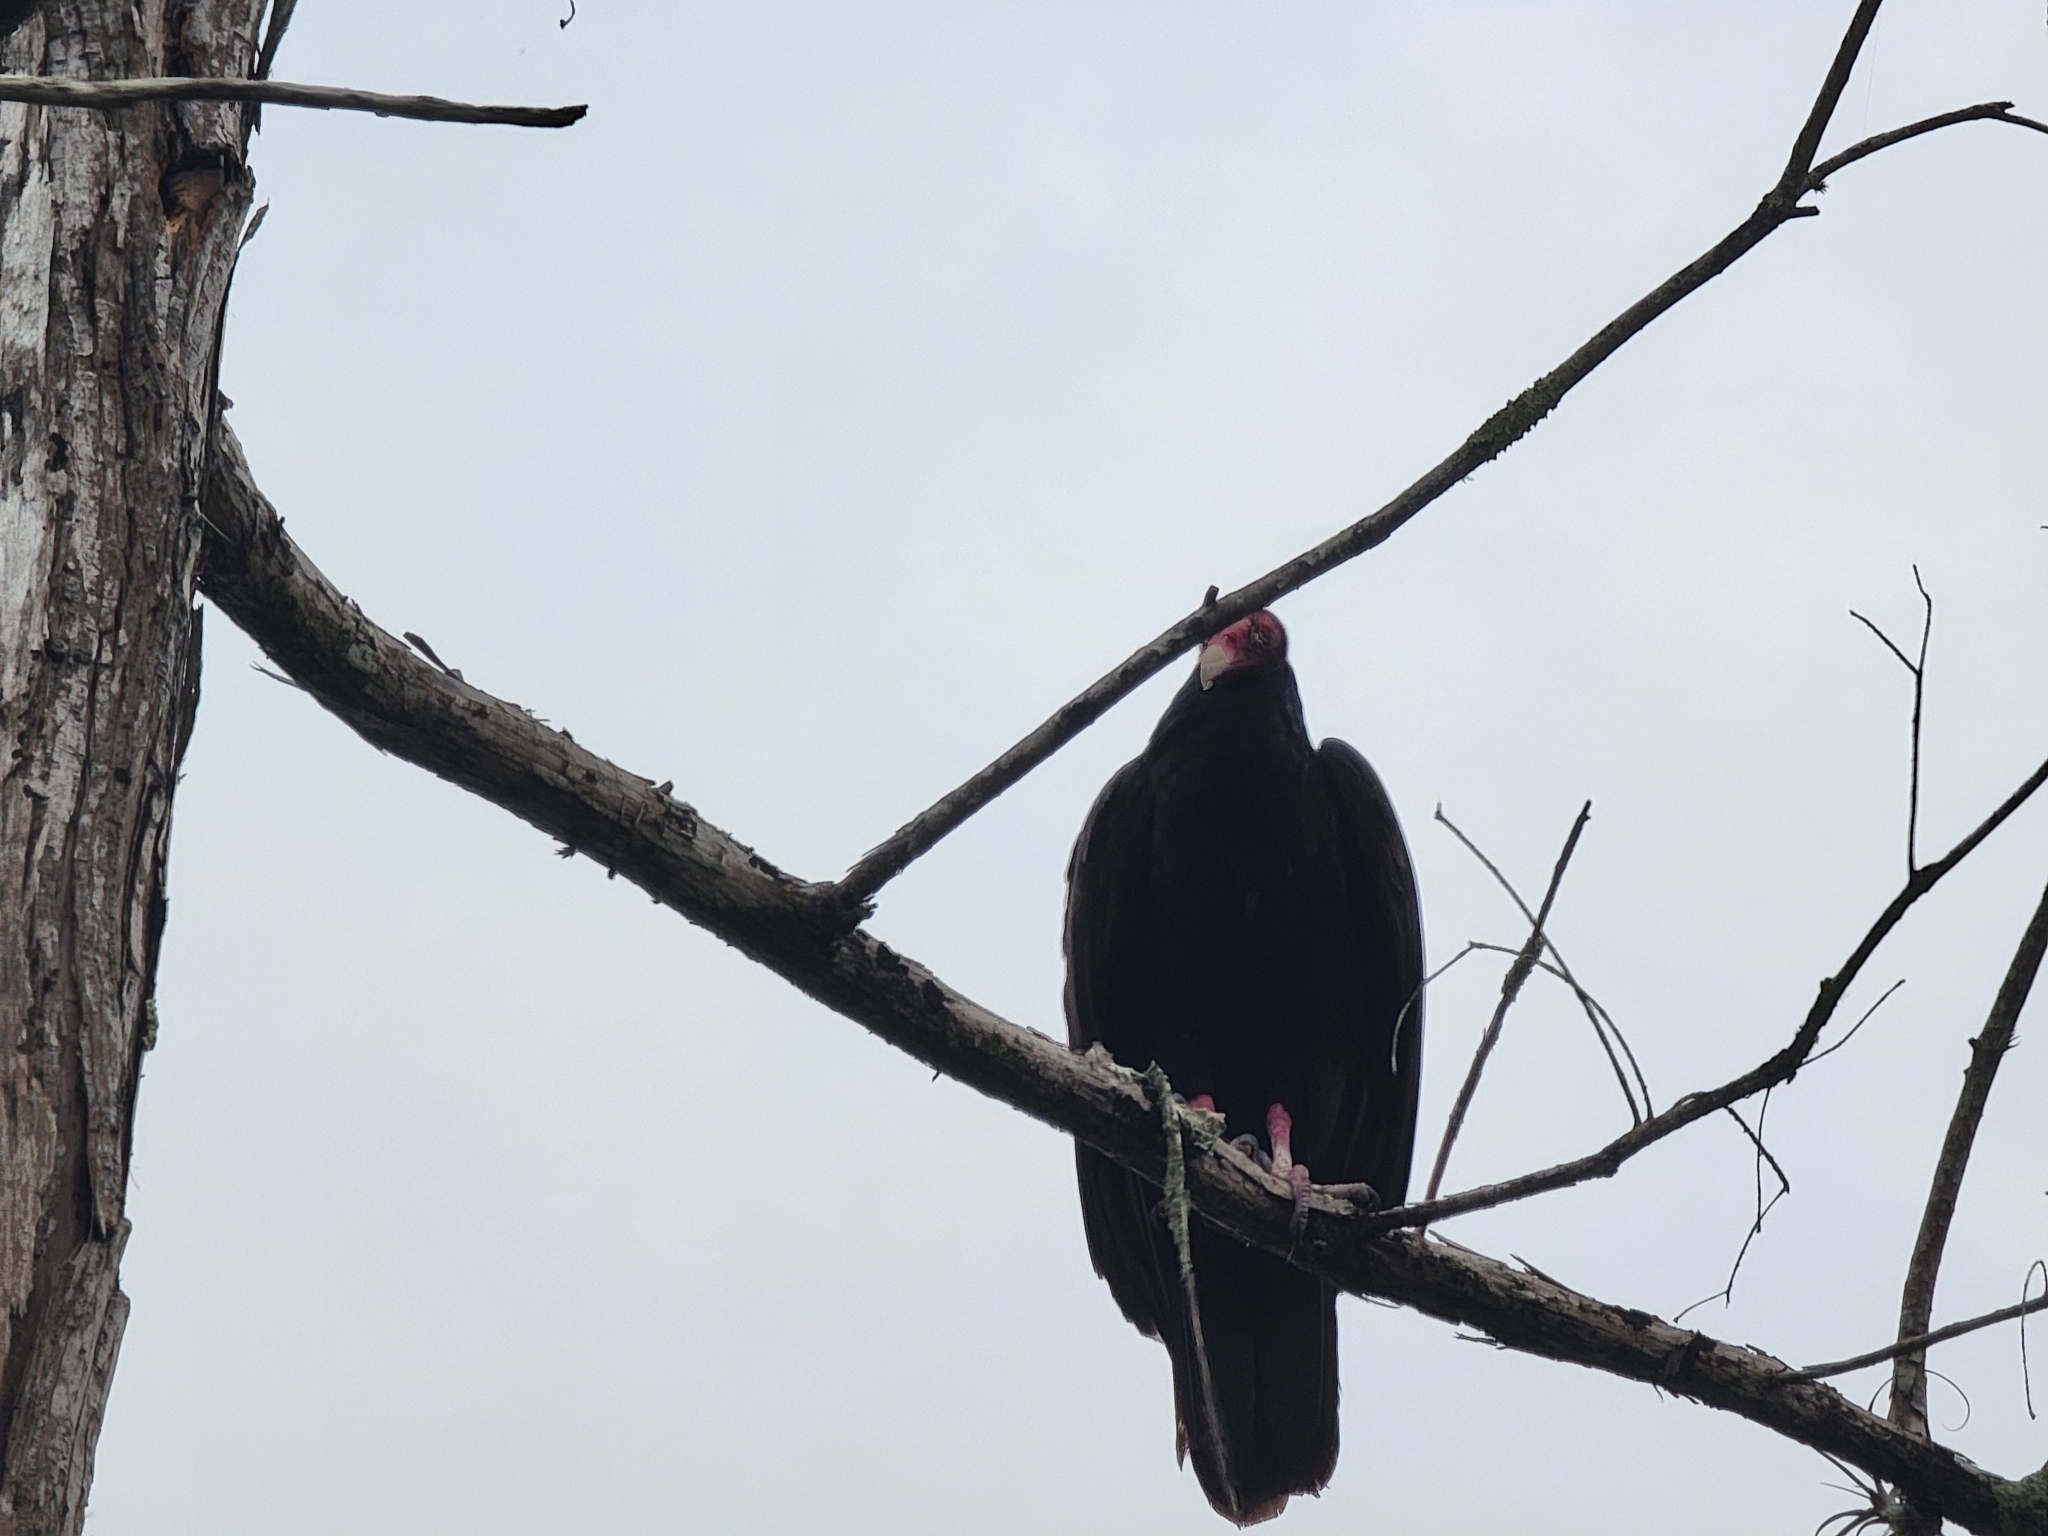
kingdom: Animalia
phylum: Chordata
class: Aves
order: Accipitriformes
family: Cathartidae
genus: Cathartes
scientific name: Cathartes aura
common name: Turkey vulture
